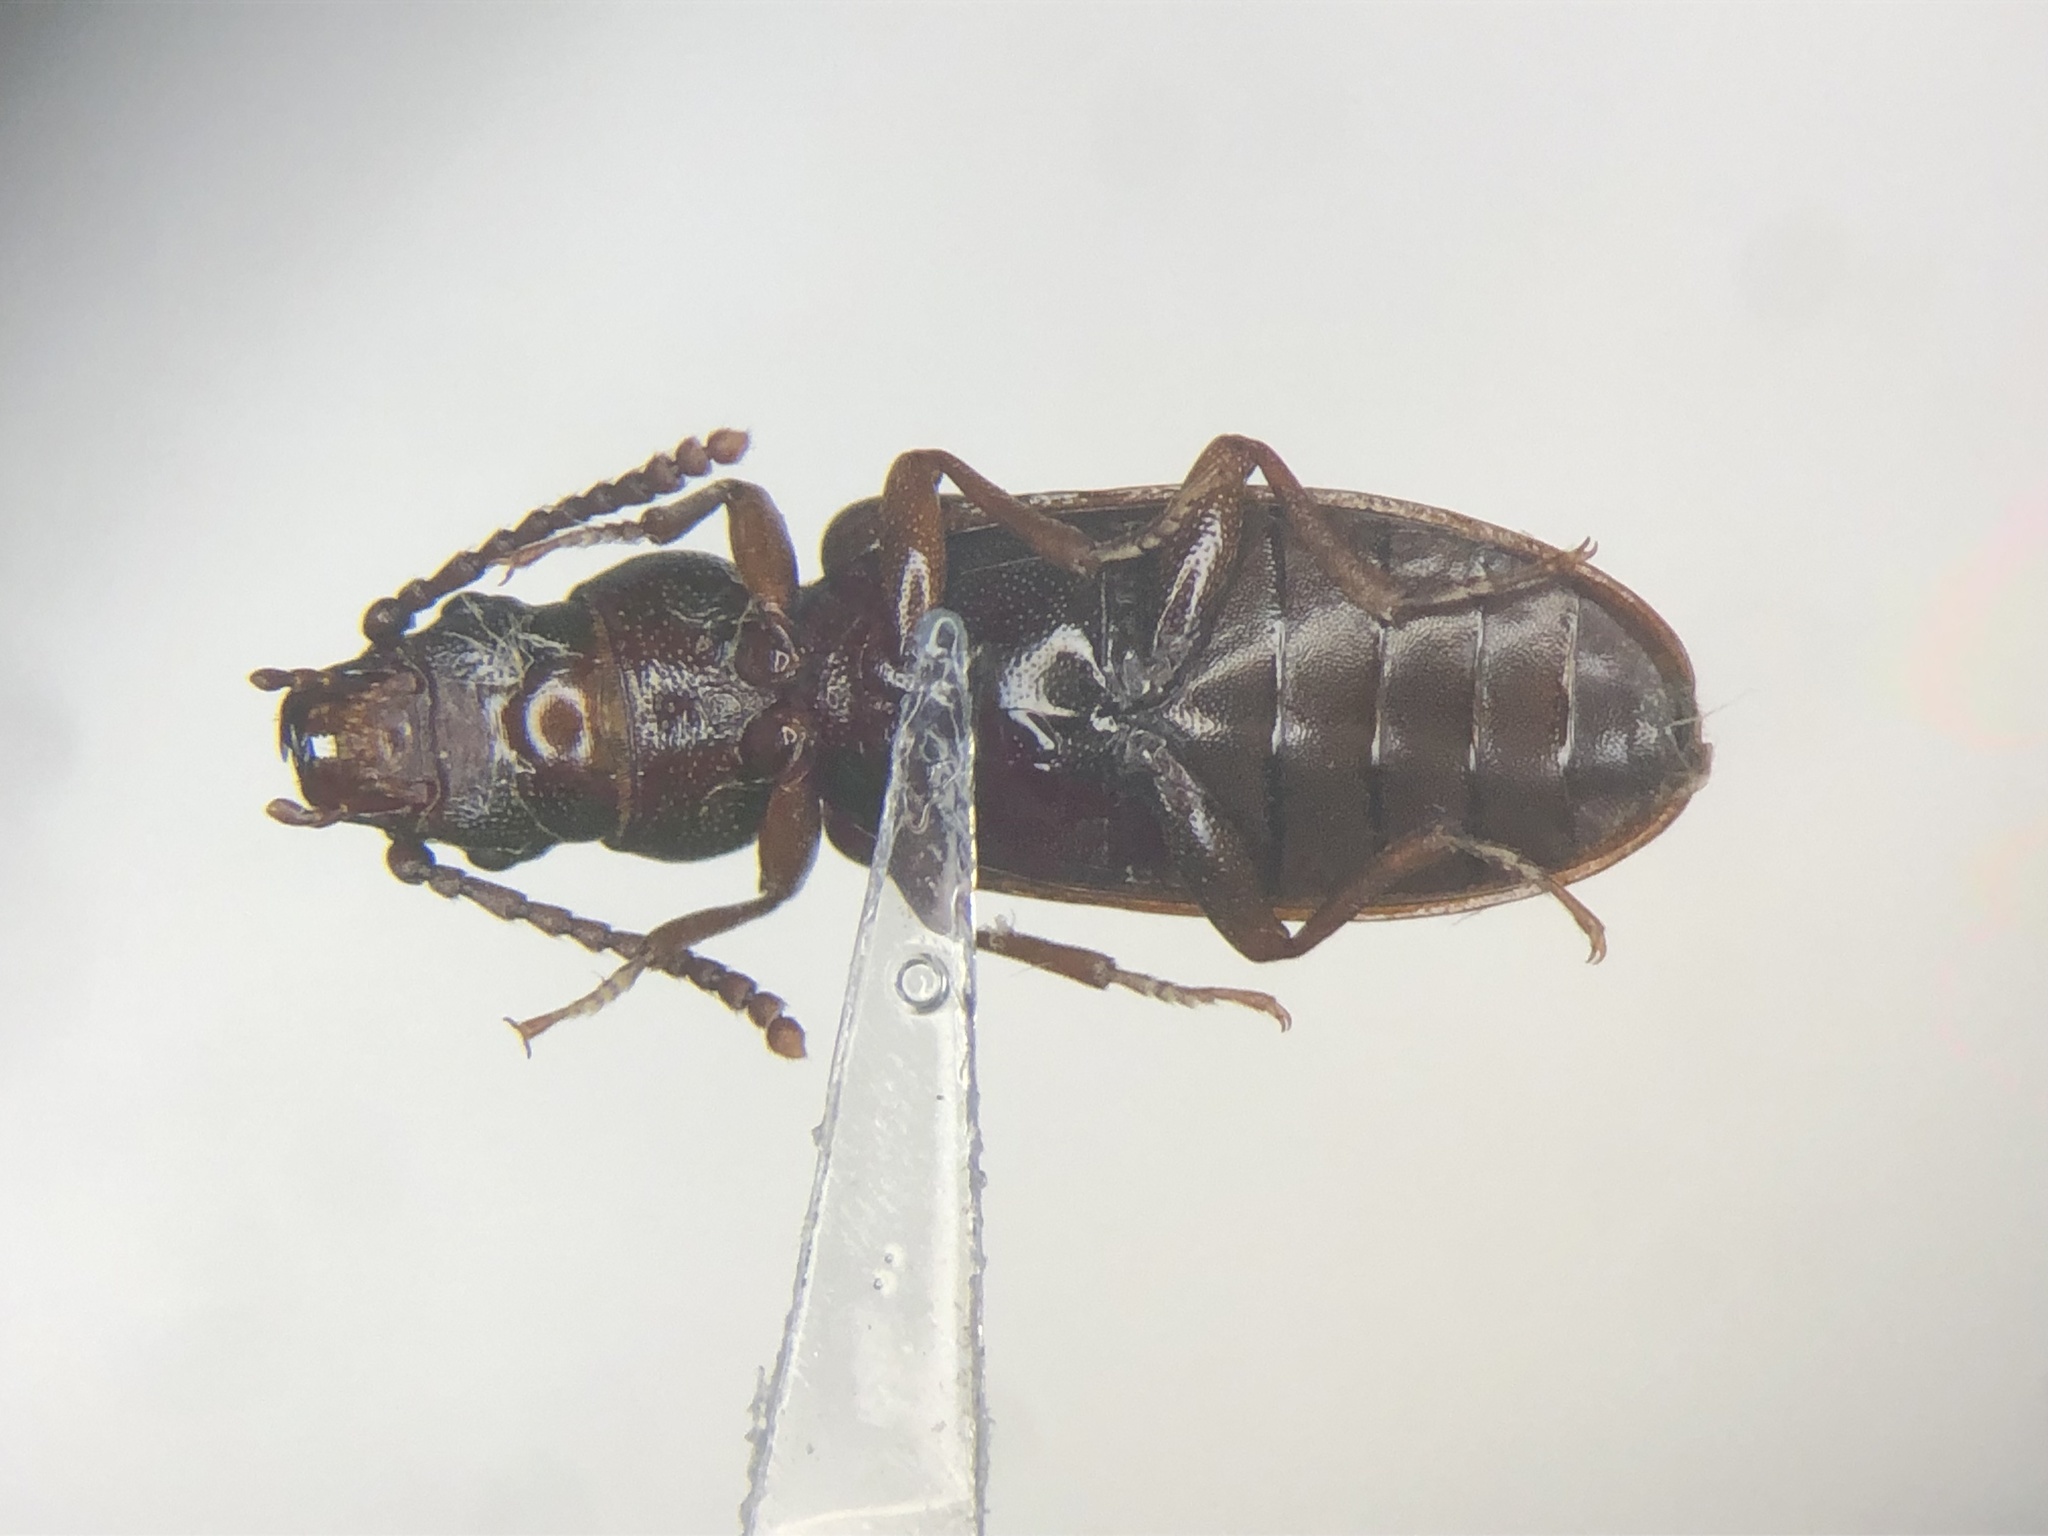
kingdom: Animalia
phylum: Arthropoda
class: Insecta
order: Coleoptera
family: Pythidae
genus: Priognathus
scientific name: Priognathus monilicornis
